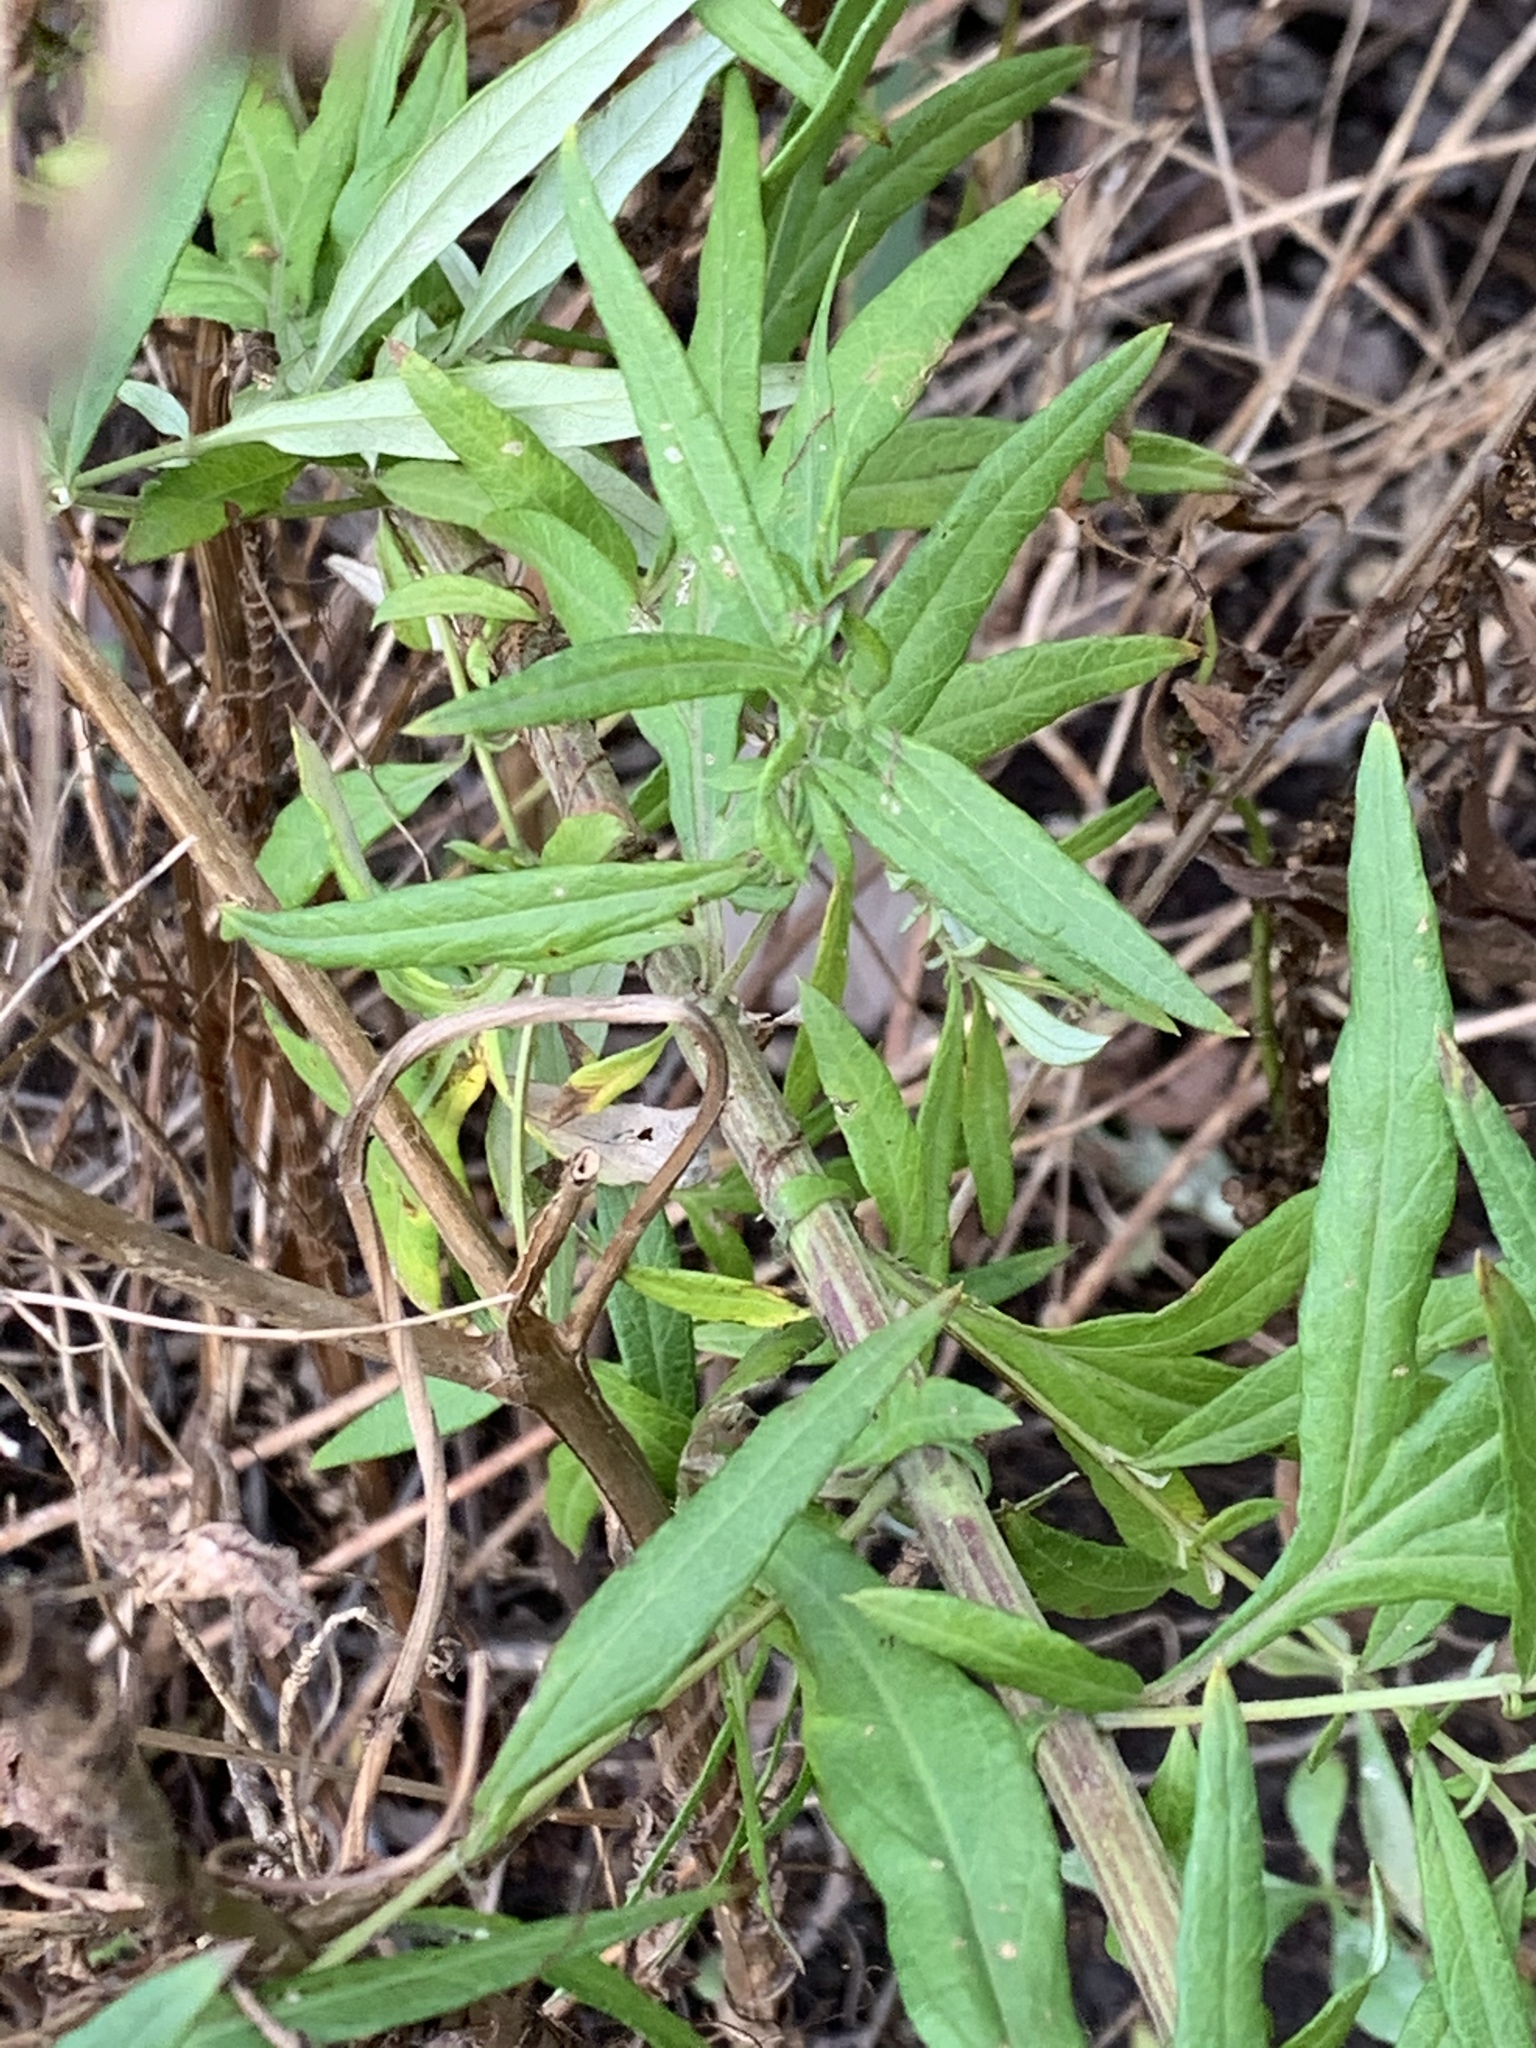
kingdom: Plantae
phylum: Tracheophyta
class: Magnoliopsida
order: Asterales
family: Asteraceae
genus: Artemisia
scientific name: Artemisia vulgaris
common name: Mugwort
